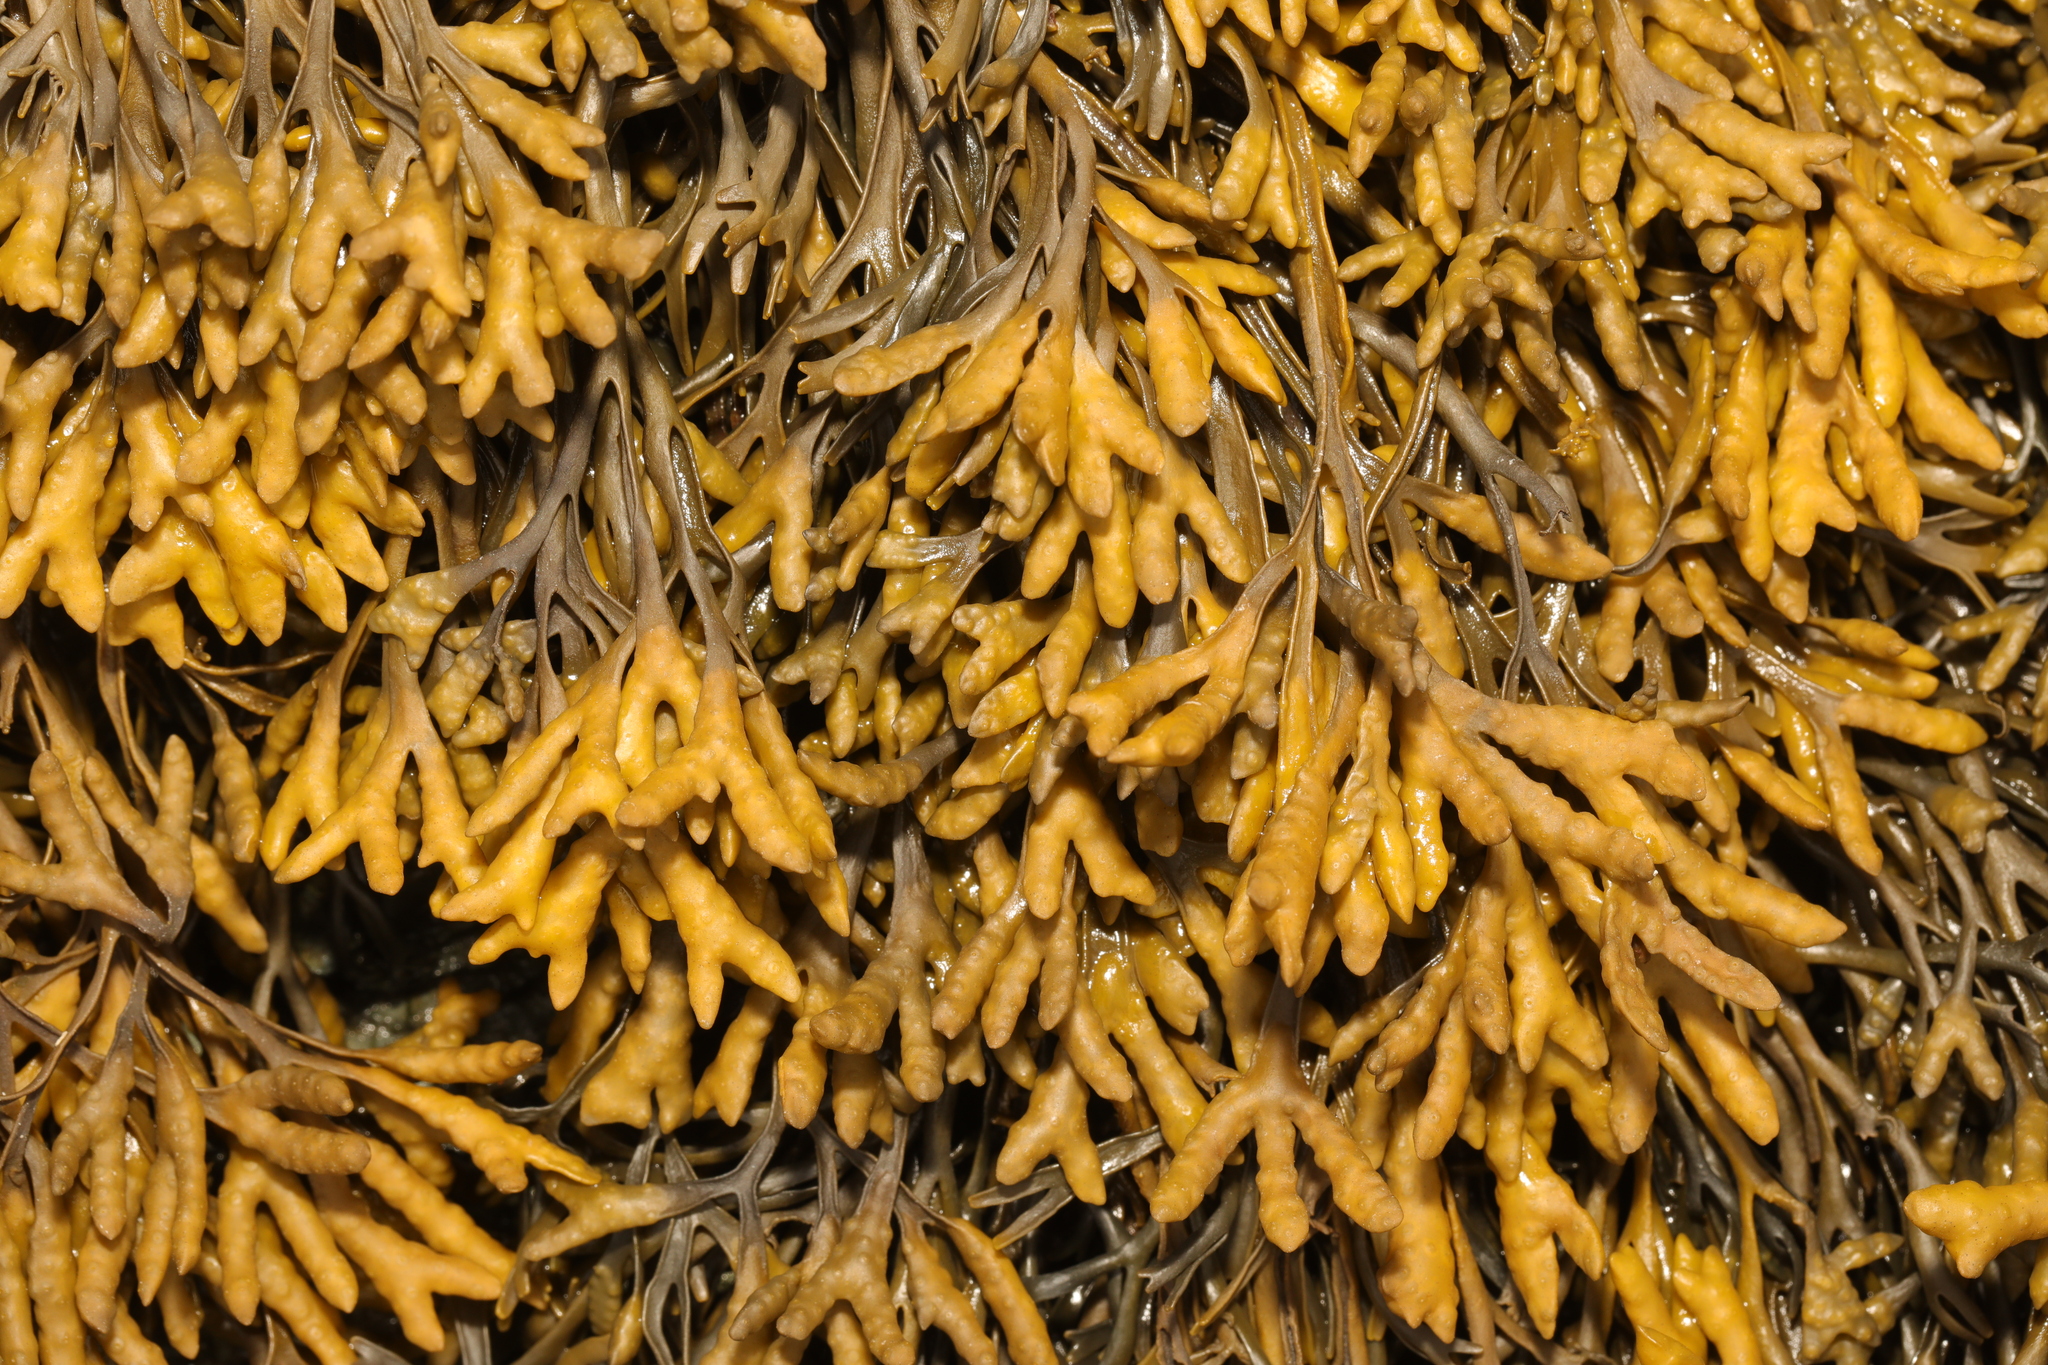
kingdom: Chromista
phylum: Ochrophyta
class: Phaeophyceae
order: Fucales
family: Fucaceae
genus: Pelvetia
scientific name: Pelvetia canaliculata
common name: Channelled wrack
